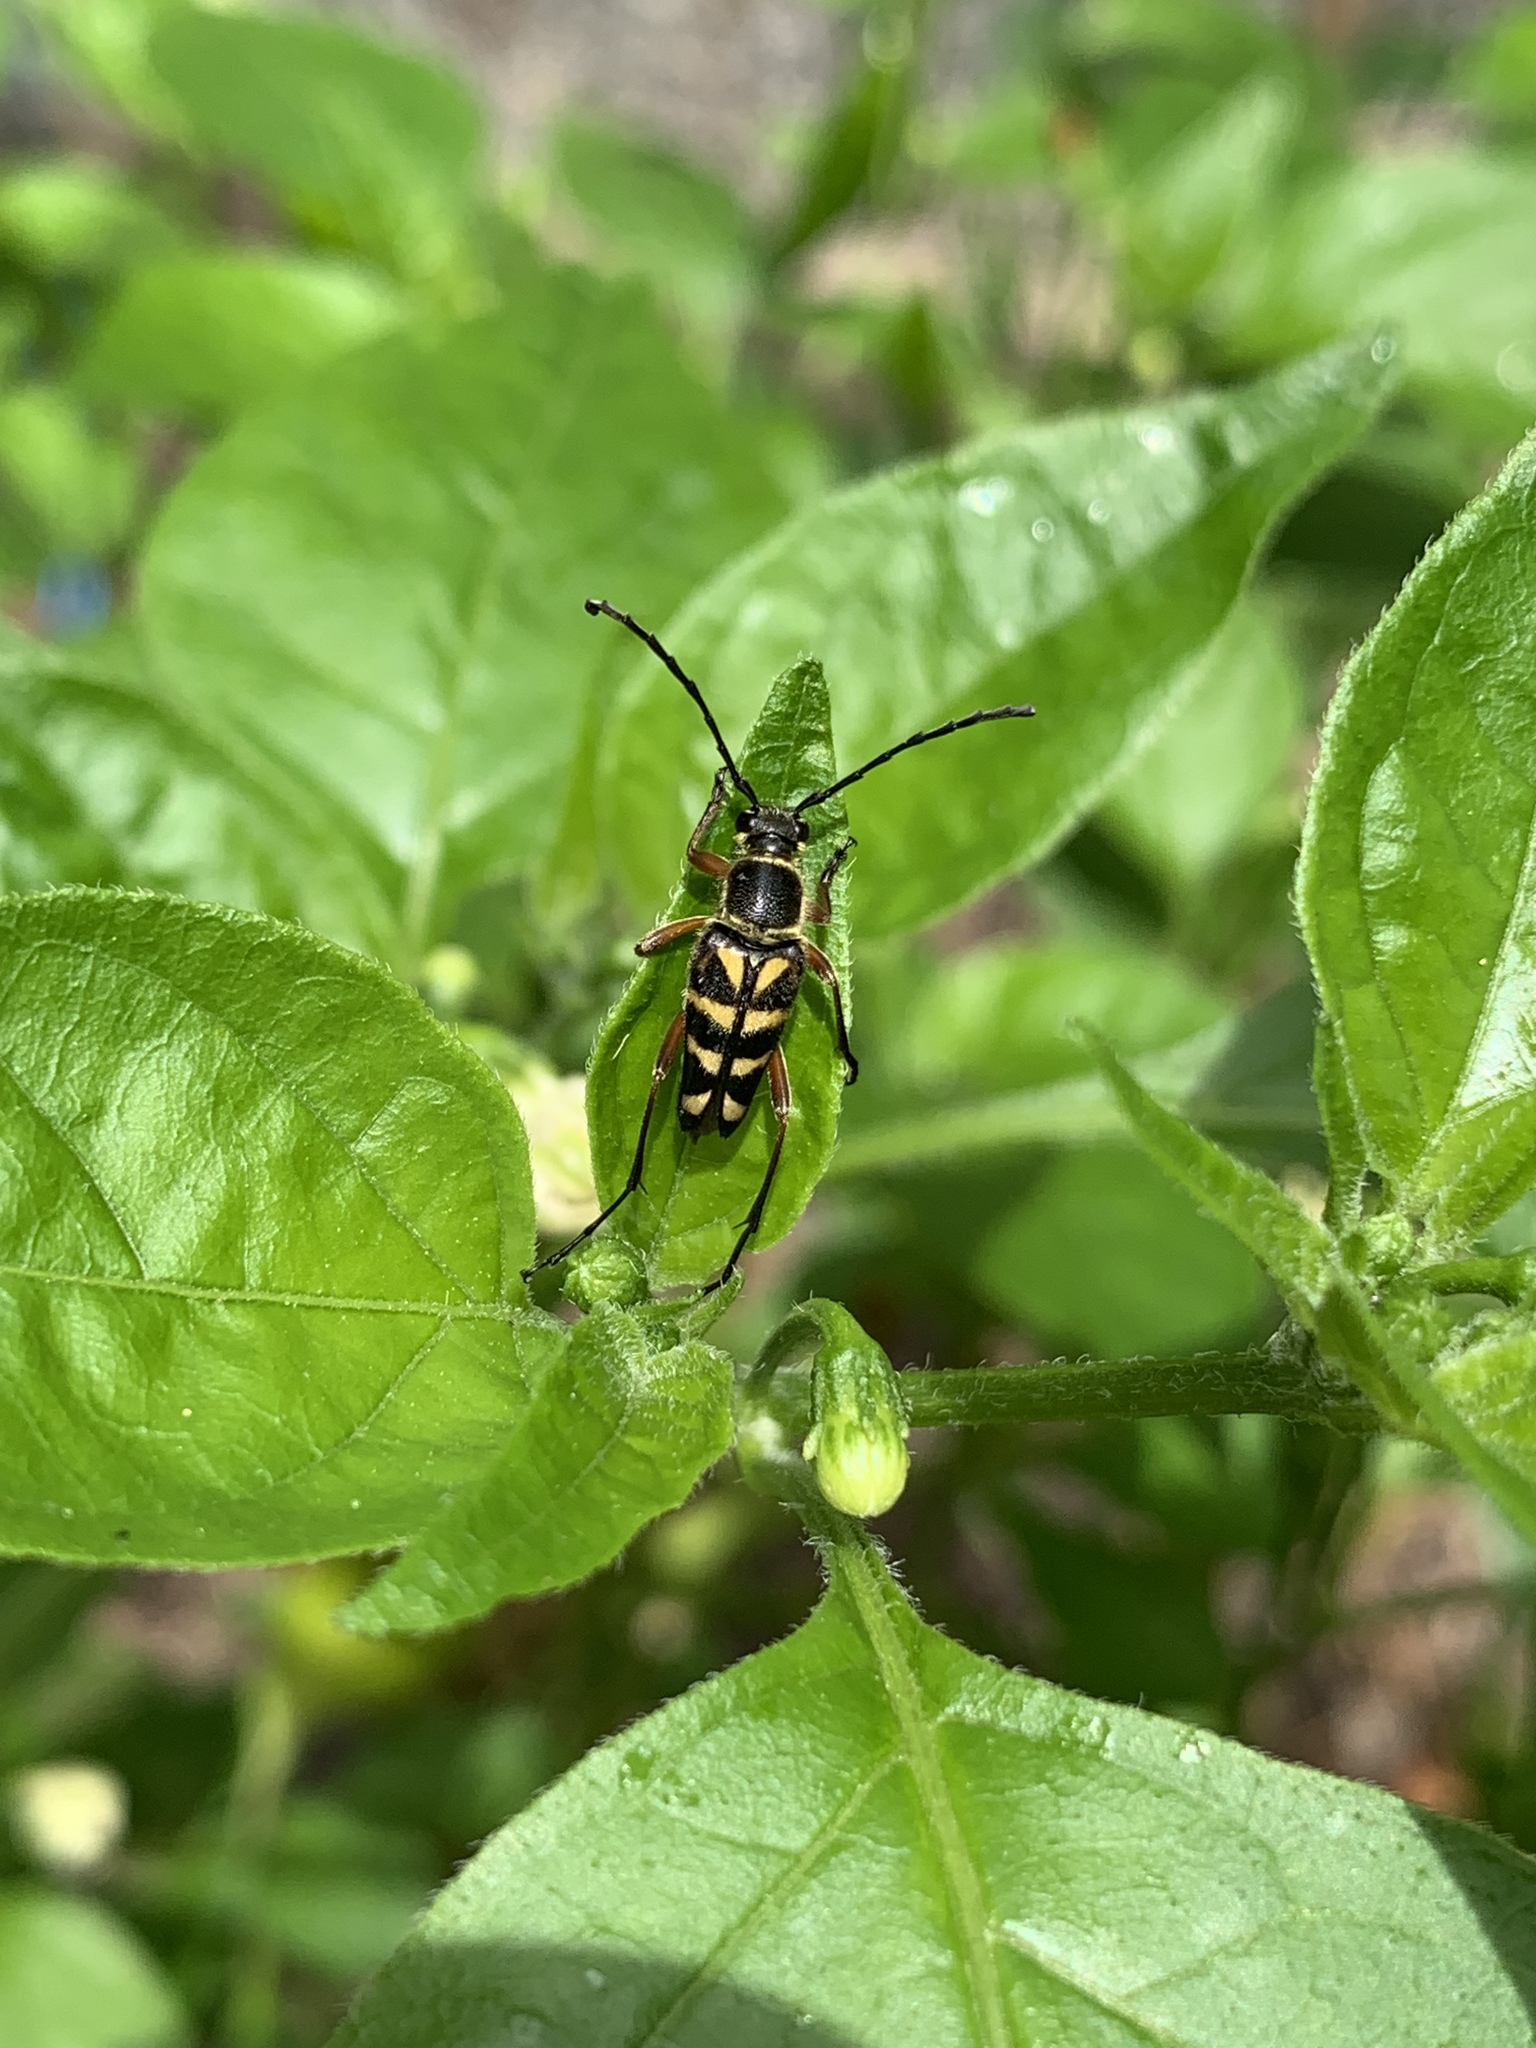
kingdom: Animalia
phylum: Arthropoda
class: Insecta
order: Coleoptera
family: Cerambycidae
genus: Typocerus
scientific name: Typocerus zebra
